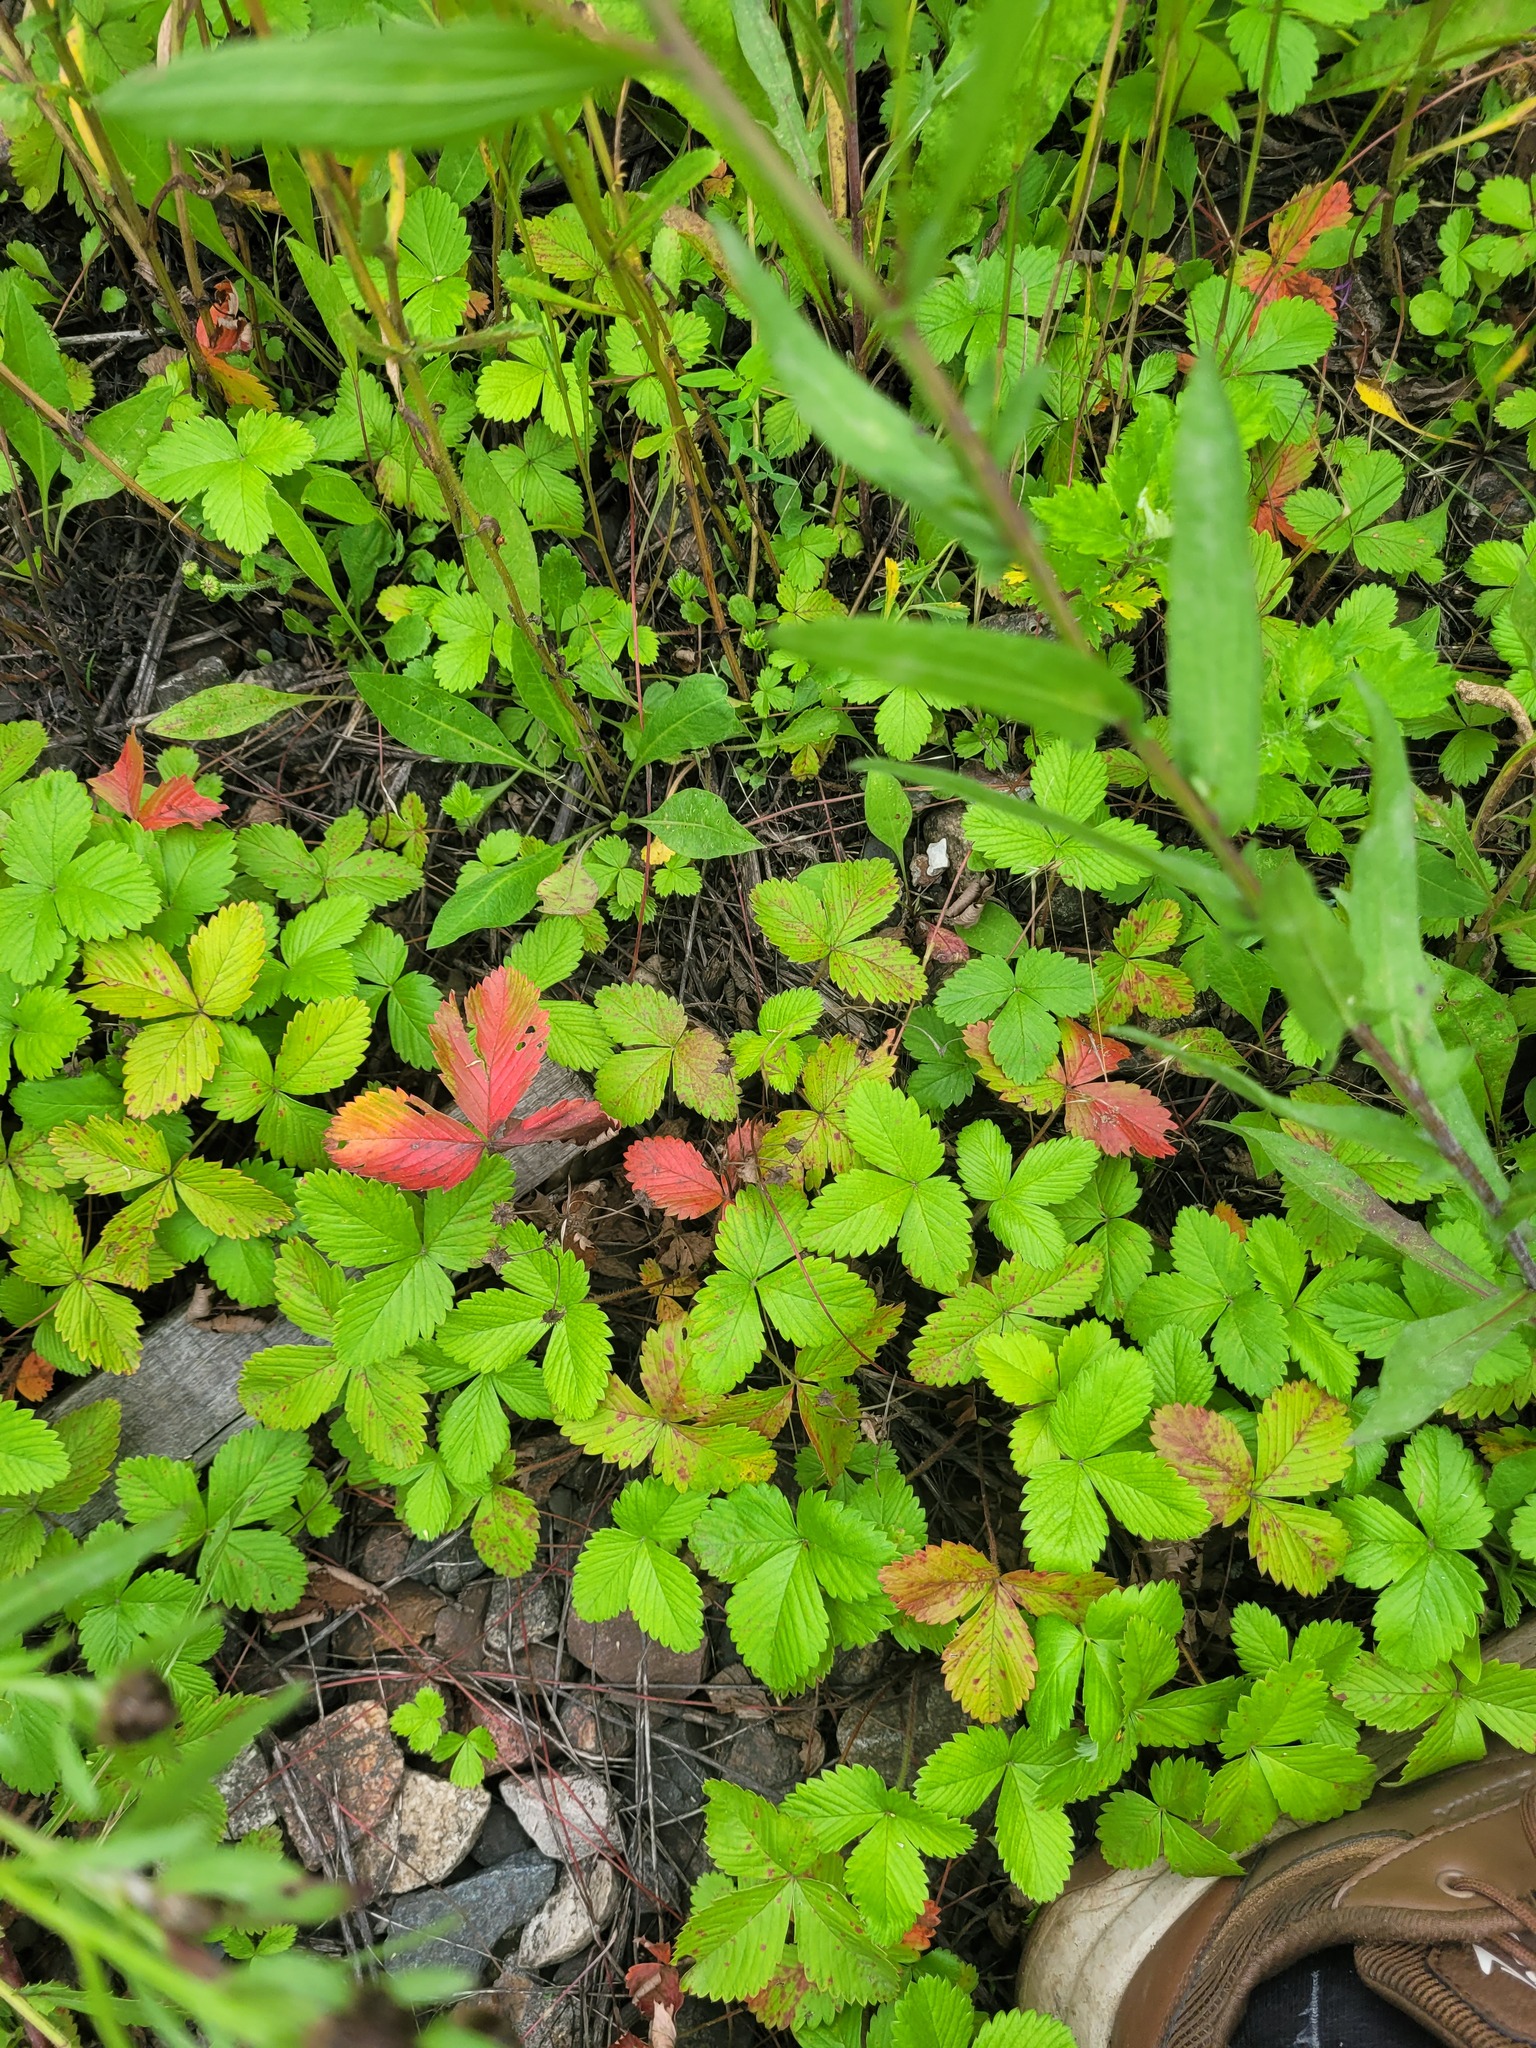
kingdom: Plantae
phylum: Tracheophyta
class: Magnoliopsida
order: Rosales
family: Rosaceae
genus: Fragaria
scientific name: Fragaria vesca
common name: Wild strawberry
